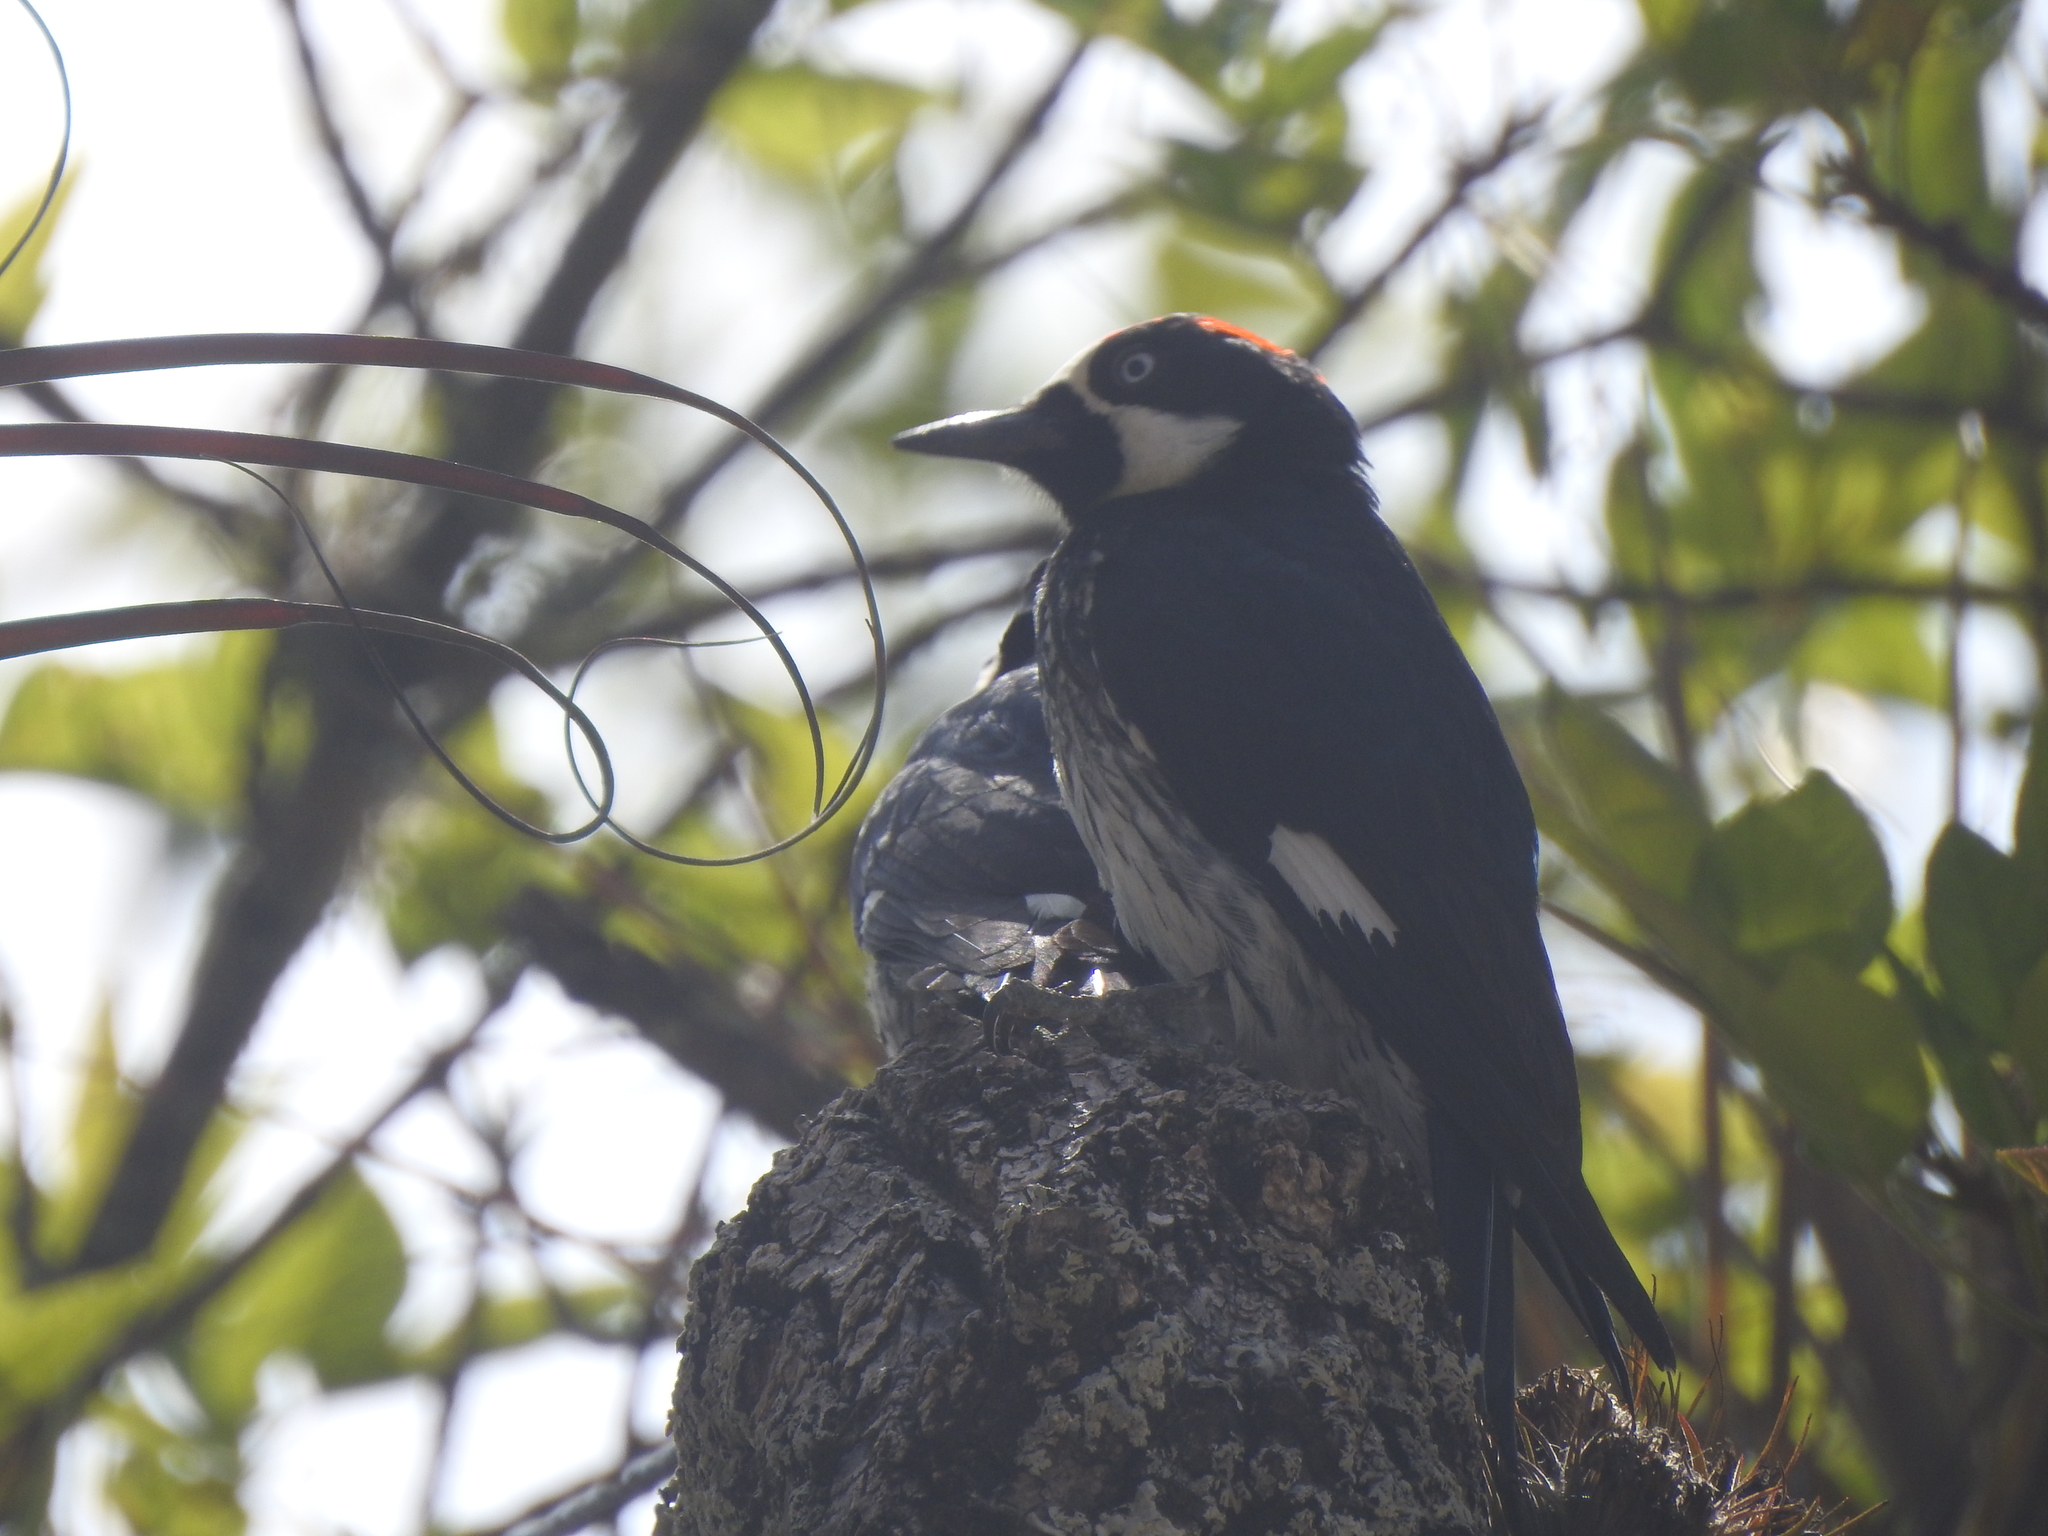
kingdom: Animalia
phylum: Chordata
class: Aves
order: Piciformes
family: Picidae
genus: Melanerpes
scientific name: Melanerpes formicivorus
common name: Acorn woodpecker
